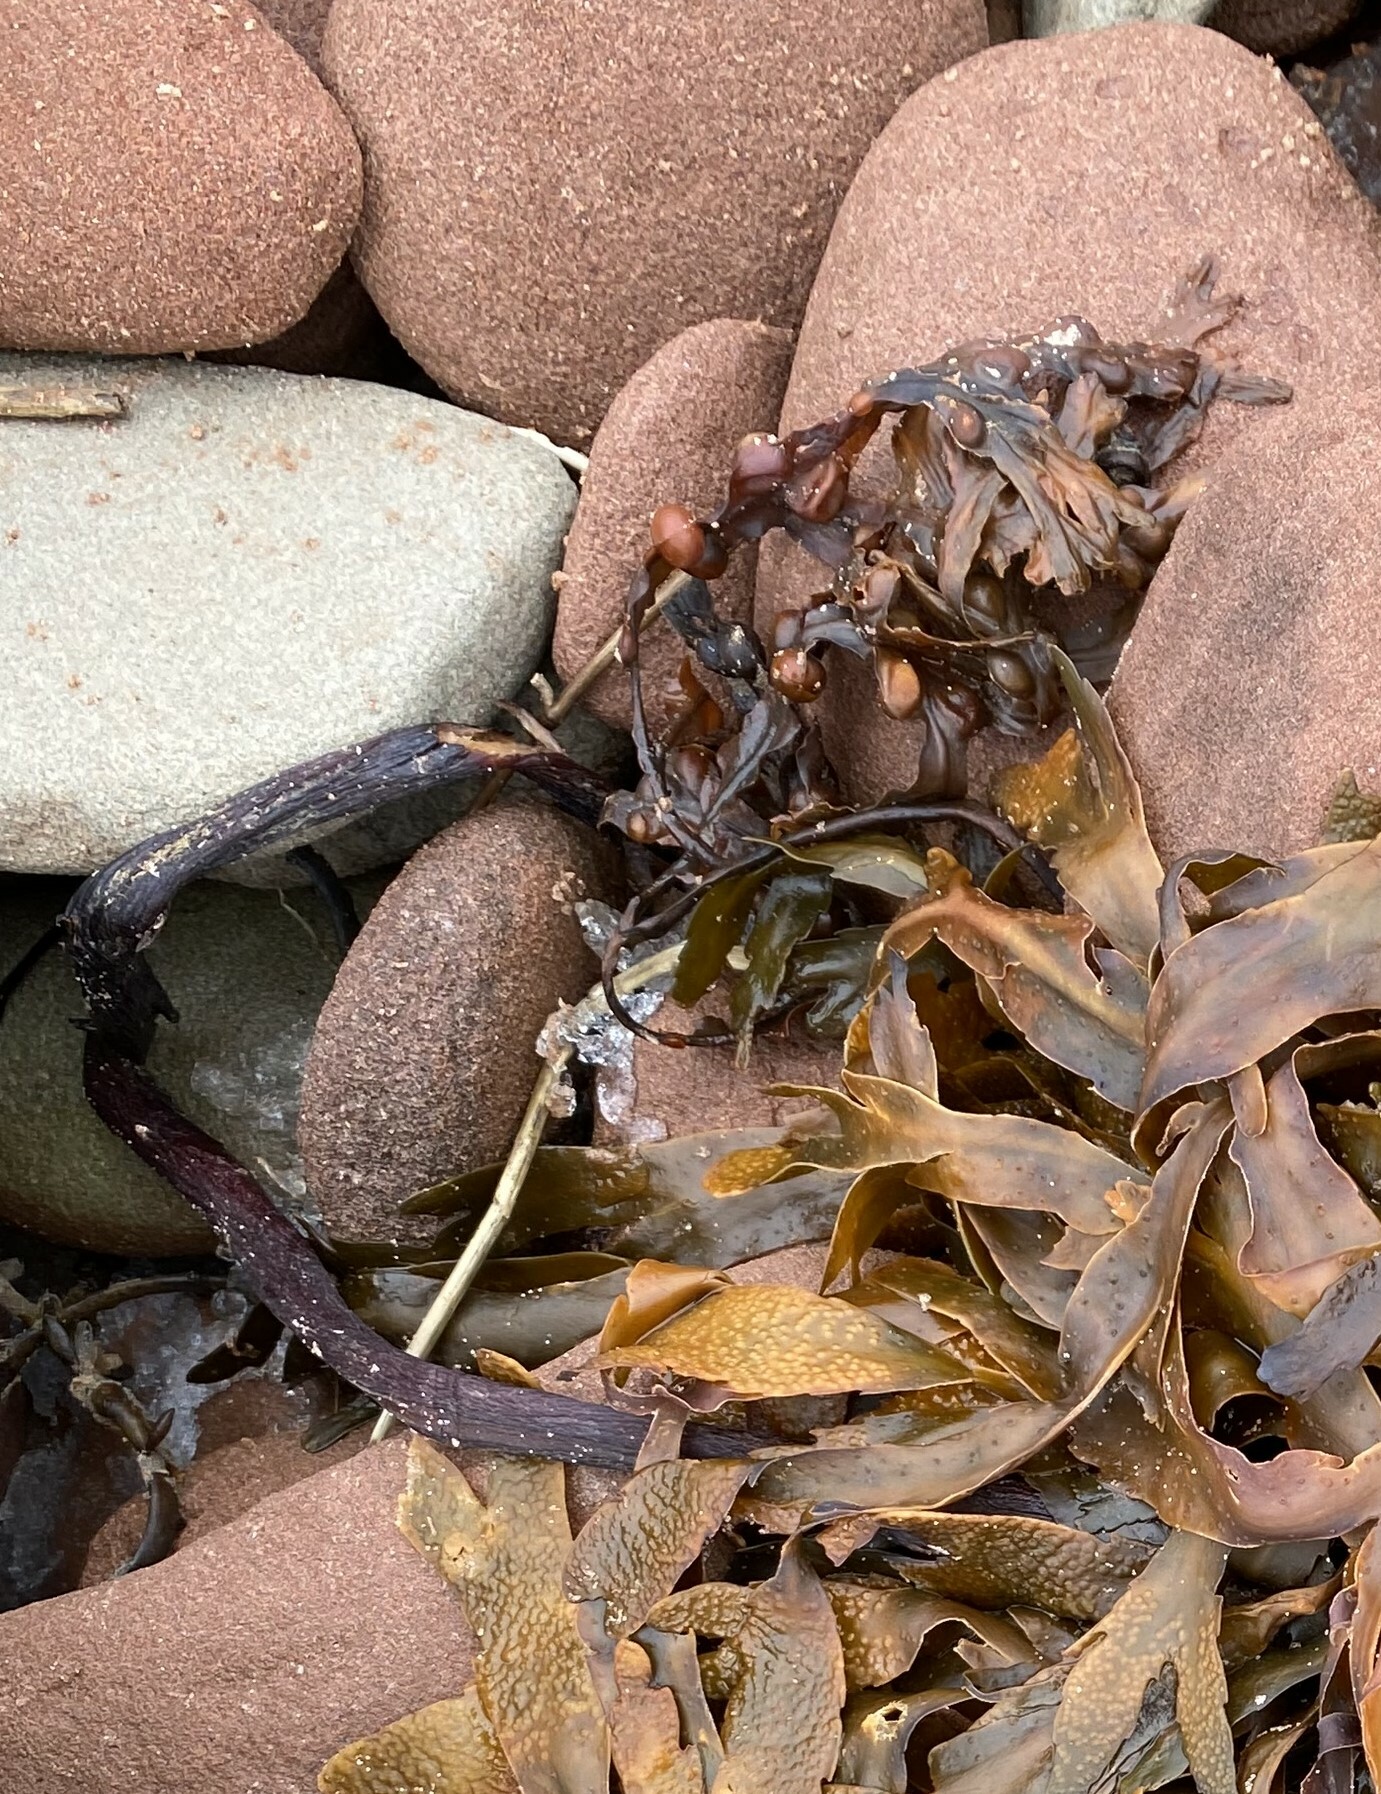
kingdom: Chromista
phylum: Ochrophyta
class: Phaeophyceae
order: Fucales
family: Fucaceae
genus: Fucus
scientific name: Fucus vesiculosus
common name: Bladder wrack
